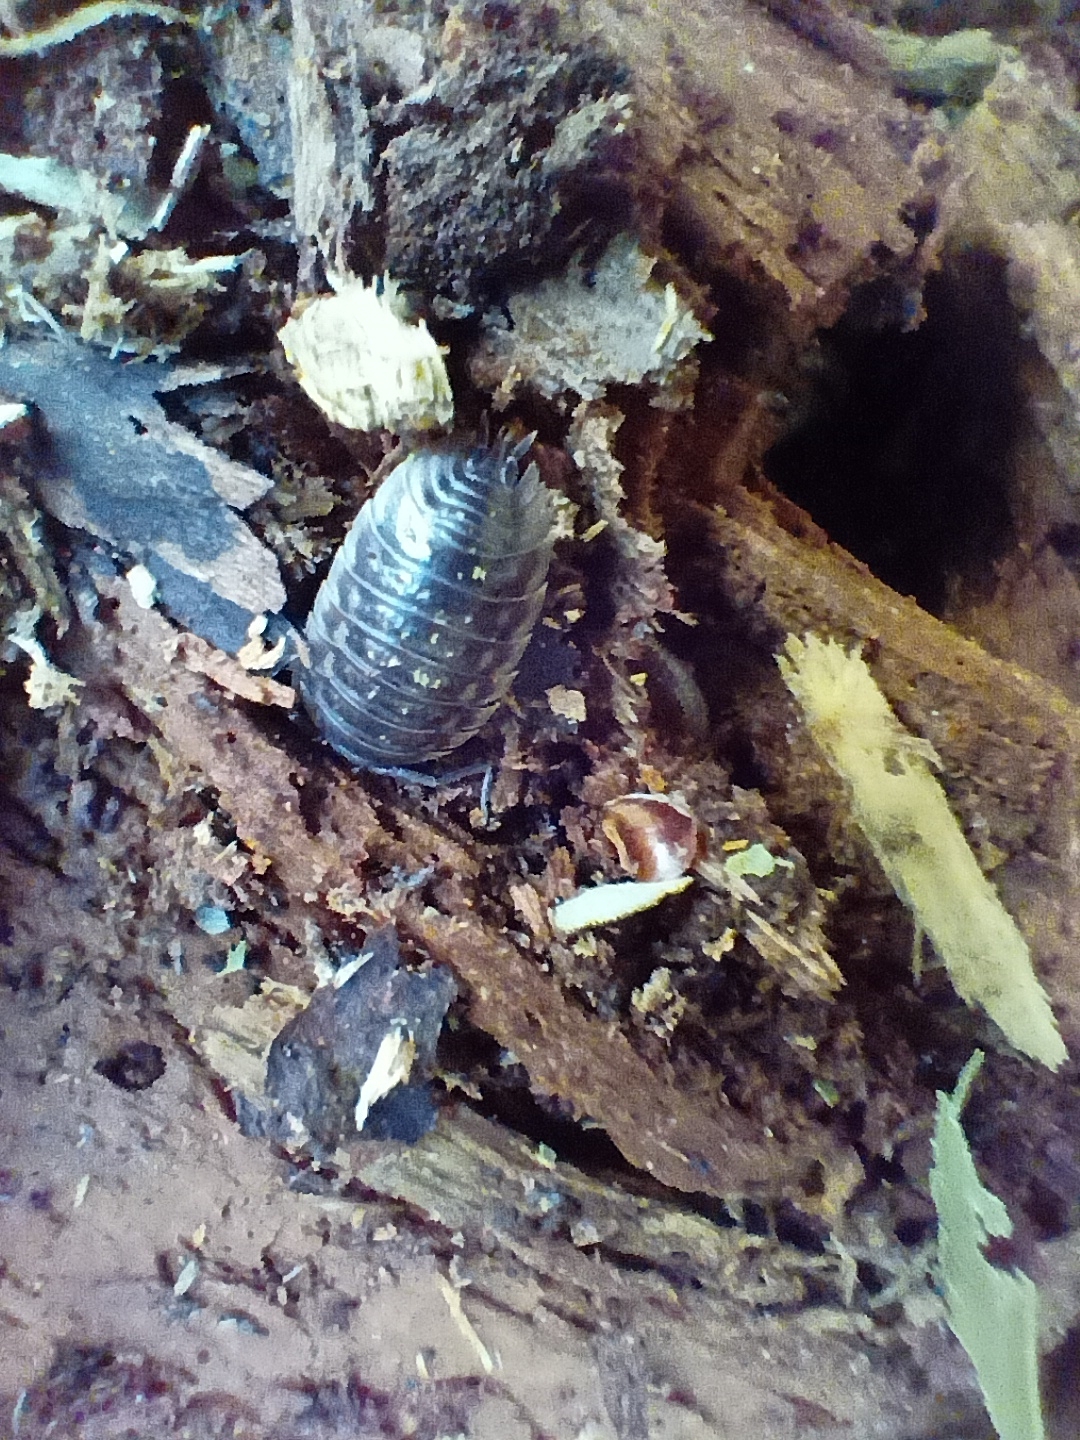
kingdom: Animalia
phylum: Arthropoda
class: Malacostraca
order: Isopoda
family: Oniscidae
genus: Oniscus
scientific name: Oniscus asellus
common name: Common shiny woodlouse
